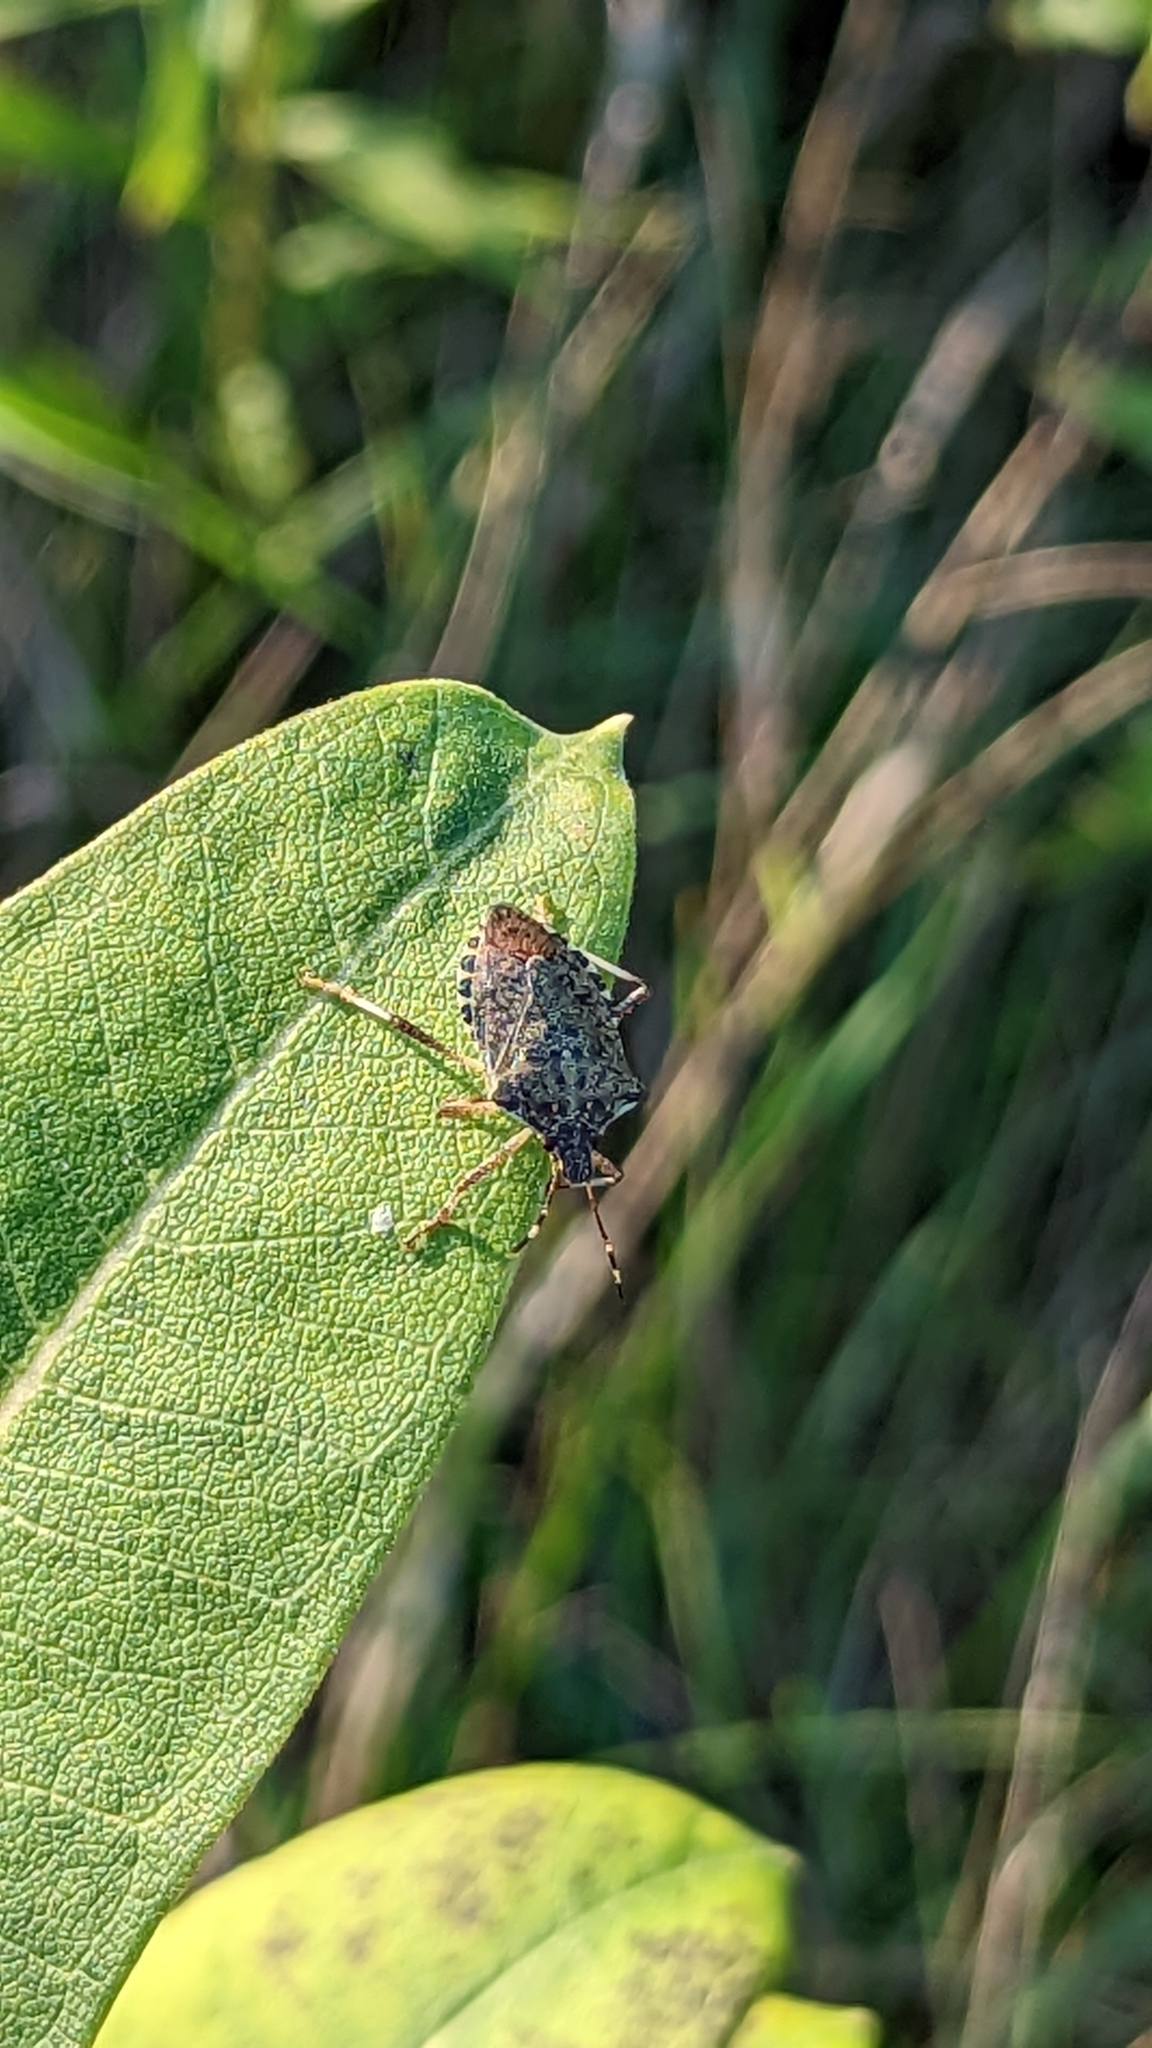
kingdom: Animalia
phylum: Arthropoda
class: Insecta
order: Hemiptera
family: Pentatomidae
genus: Halyomorpha
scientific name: Halyomorpha halys
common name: Brown marmorated stink bug
